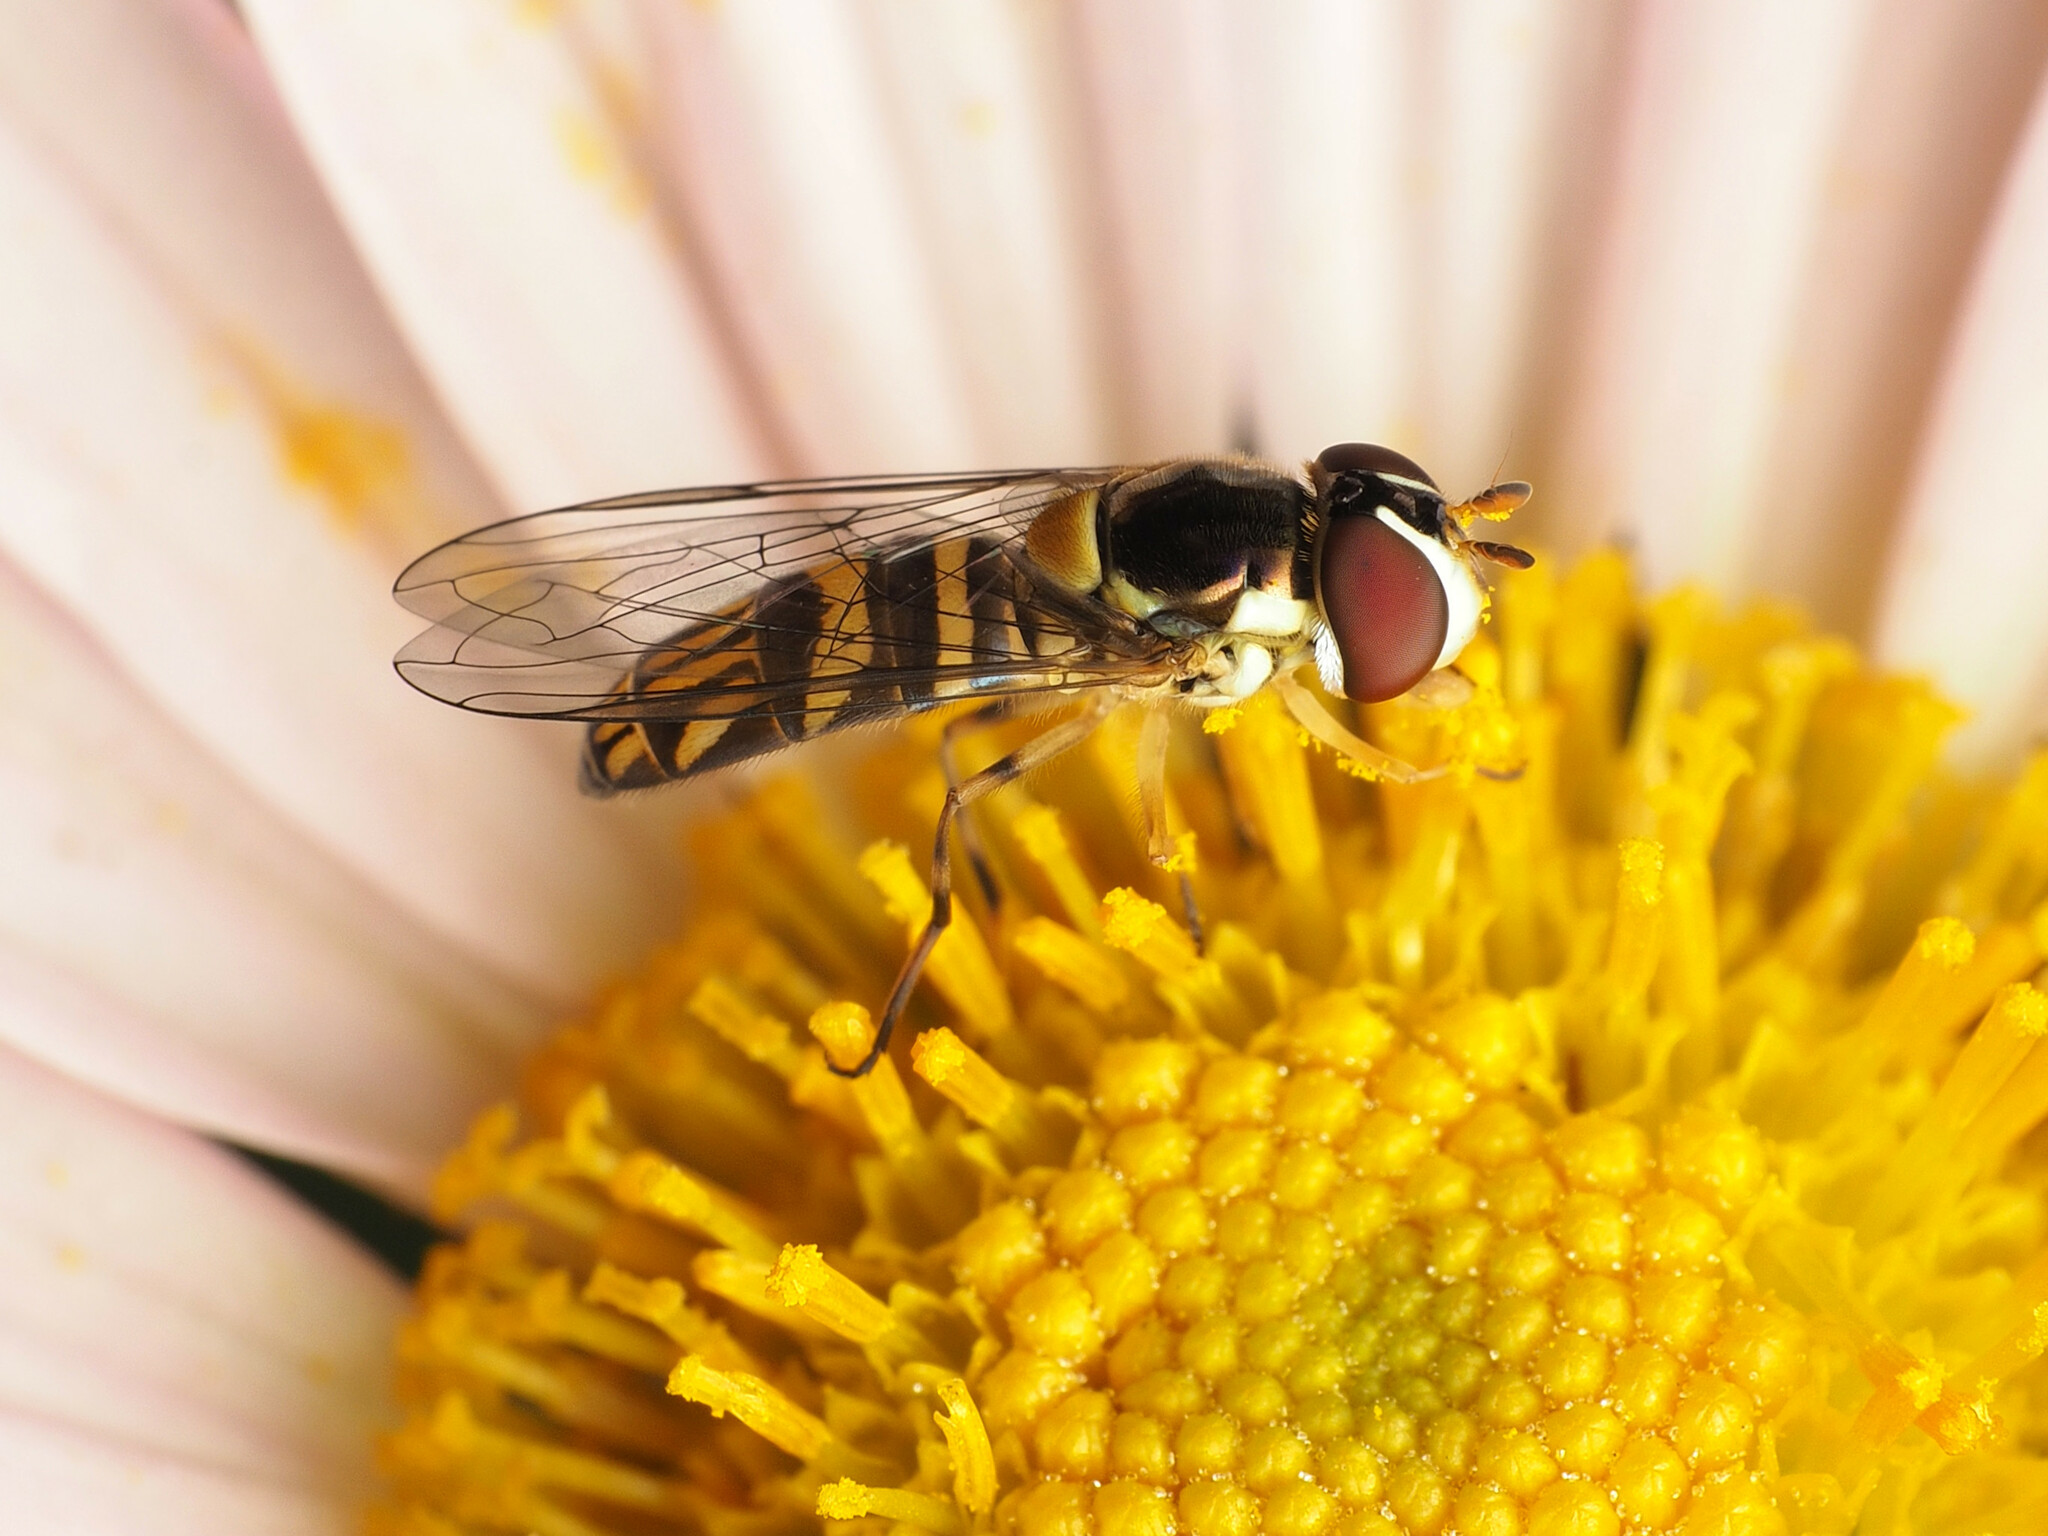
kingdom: Animalia
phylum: Arthropoda
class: Insecta
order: Diptera
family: Syrphidae
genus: Allograpta
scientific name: Allograpta obliqua
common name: Common oblique syrphid
